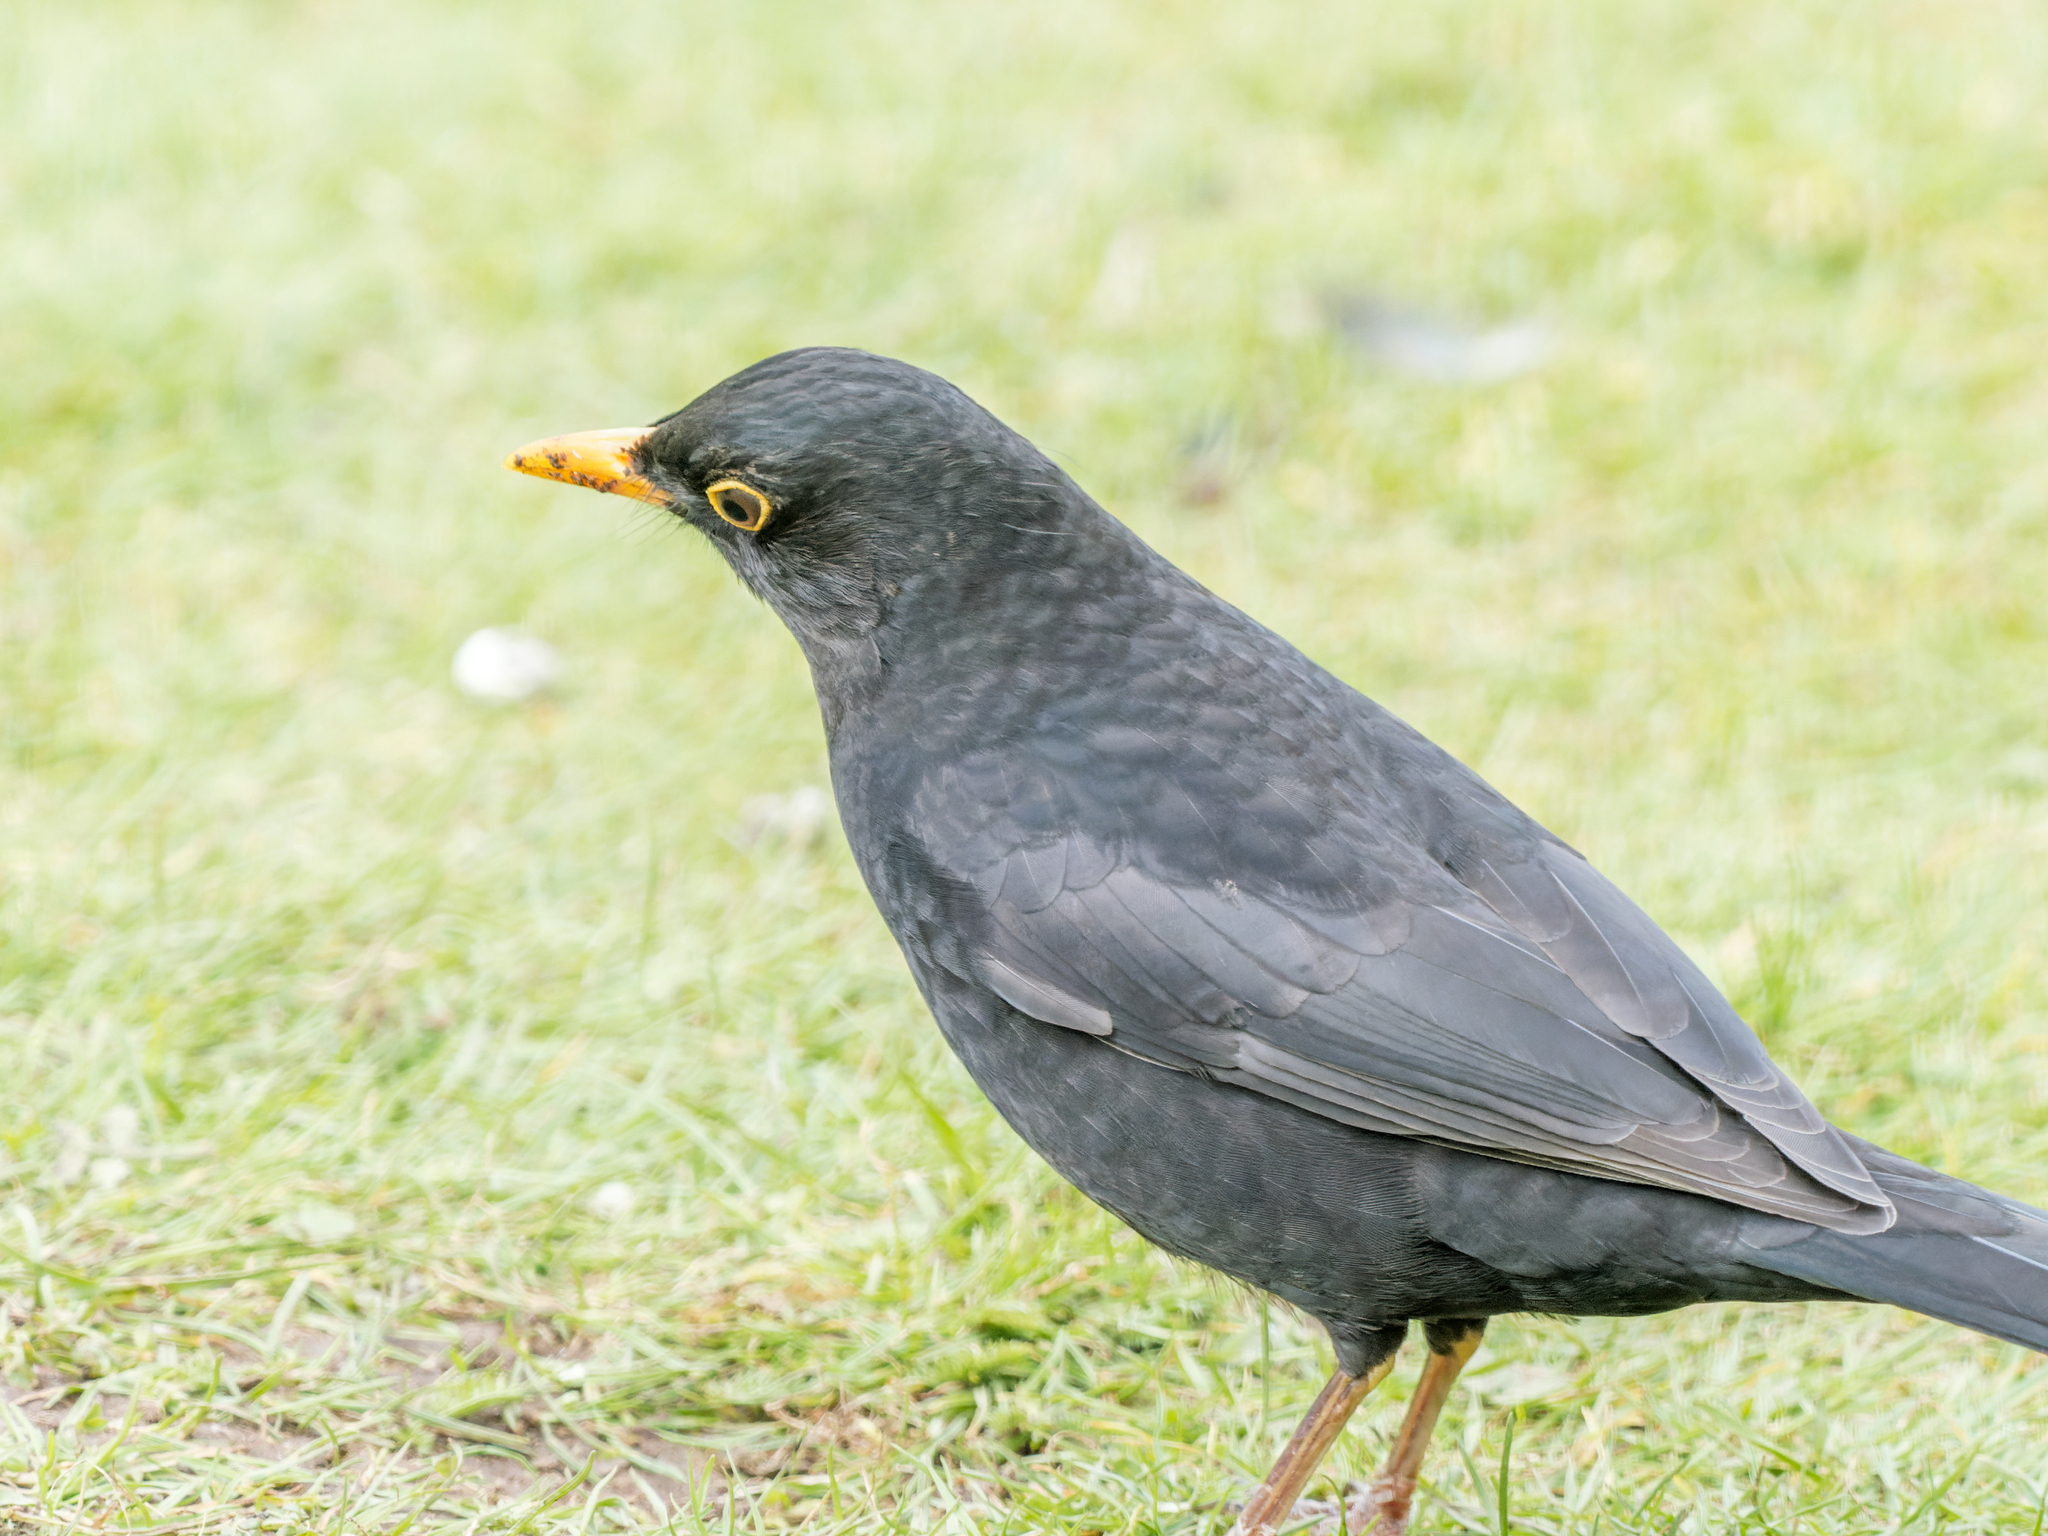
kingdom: Animalia
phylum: Chordata
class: Aves
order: Passeriformes
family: Turdidae
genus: Turdus
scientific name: Turdus merula
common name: Common blackbird
